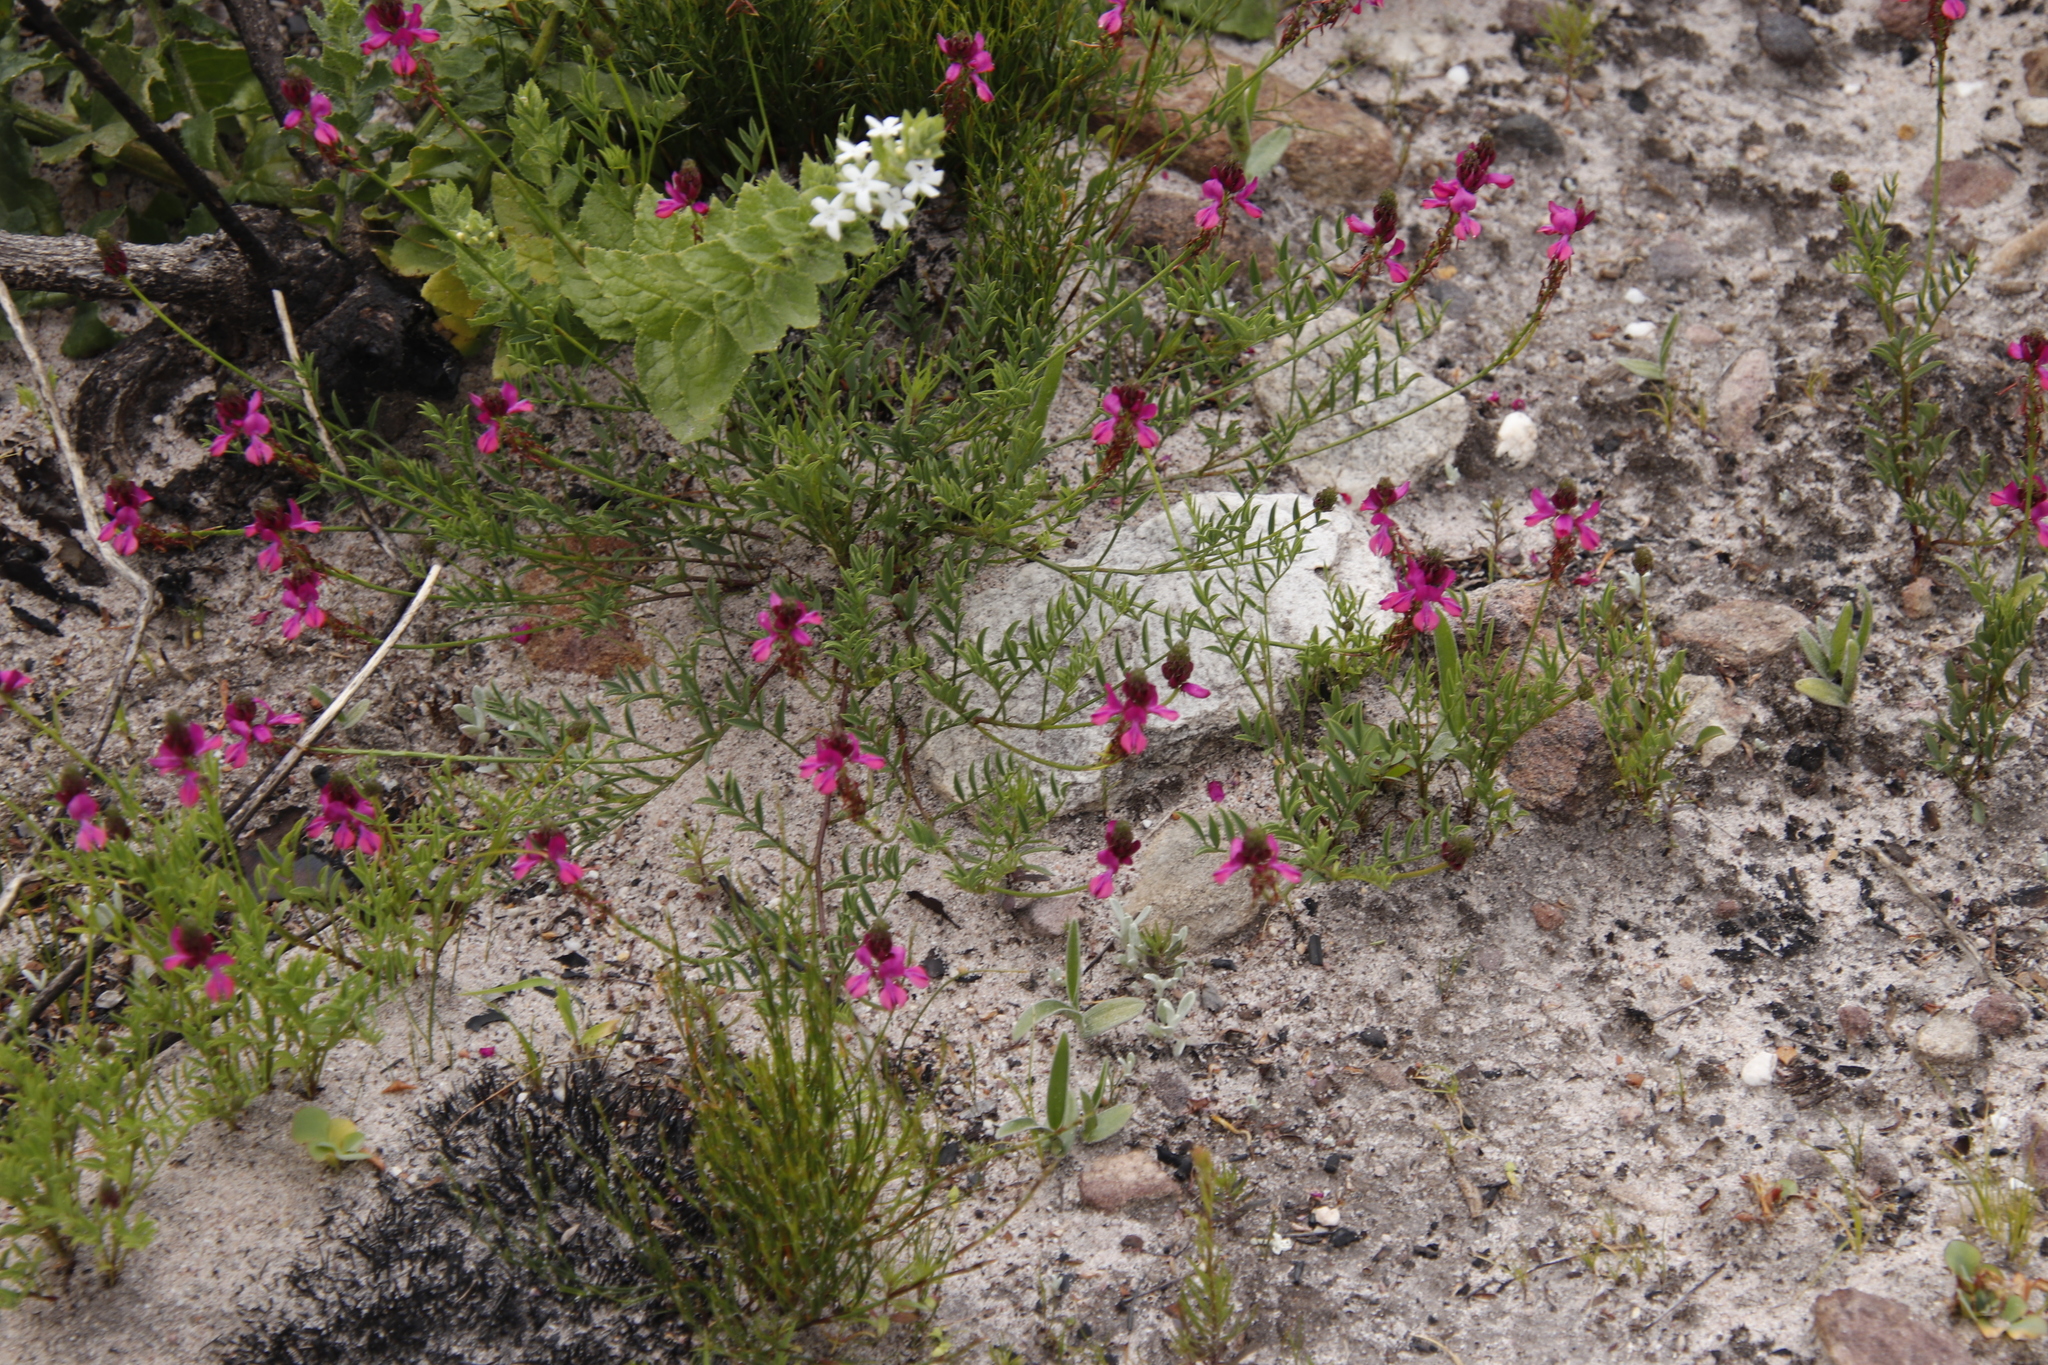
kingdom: Plantae
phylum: Tracheophyta
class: Magnoliopsida
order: Fabales
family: Fabaceae
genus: Indigofera
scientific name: Indigofera capillaris
